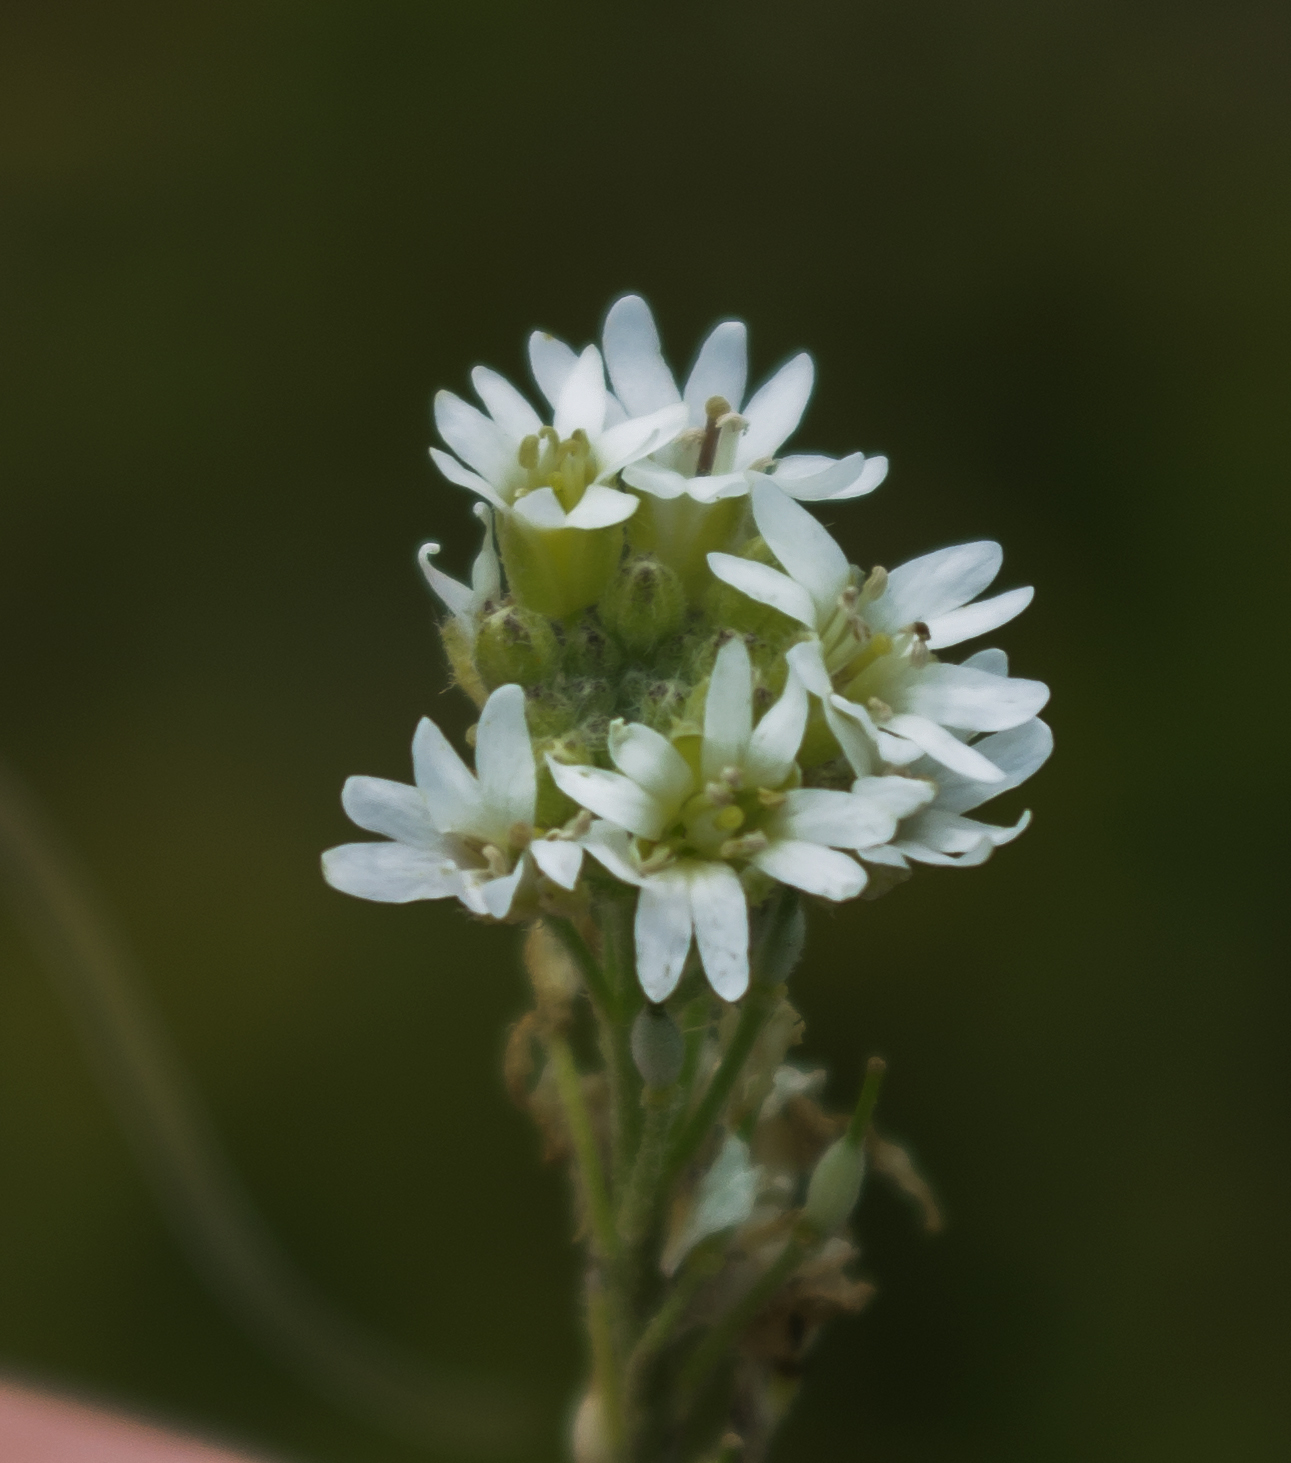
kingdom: Plantae
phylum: Tracheophyta
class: Magnoliopsida
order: Brassicales
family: Brassicaceae
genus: Berteroa
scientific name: Berteroa incana
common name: Hoary alison
